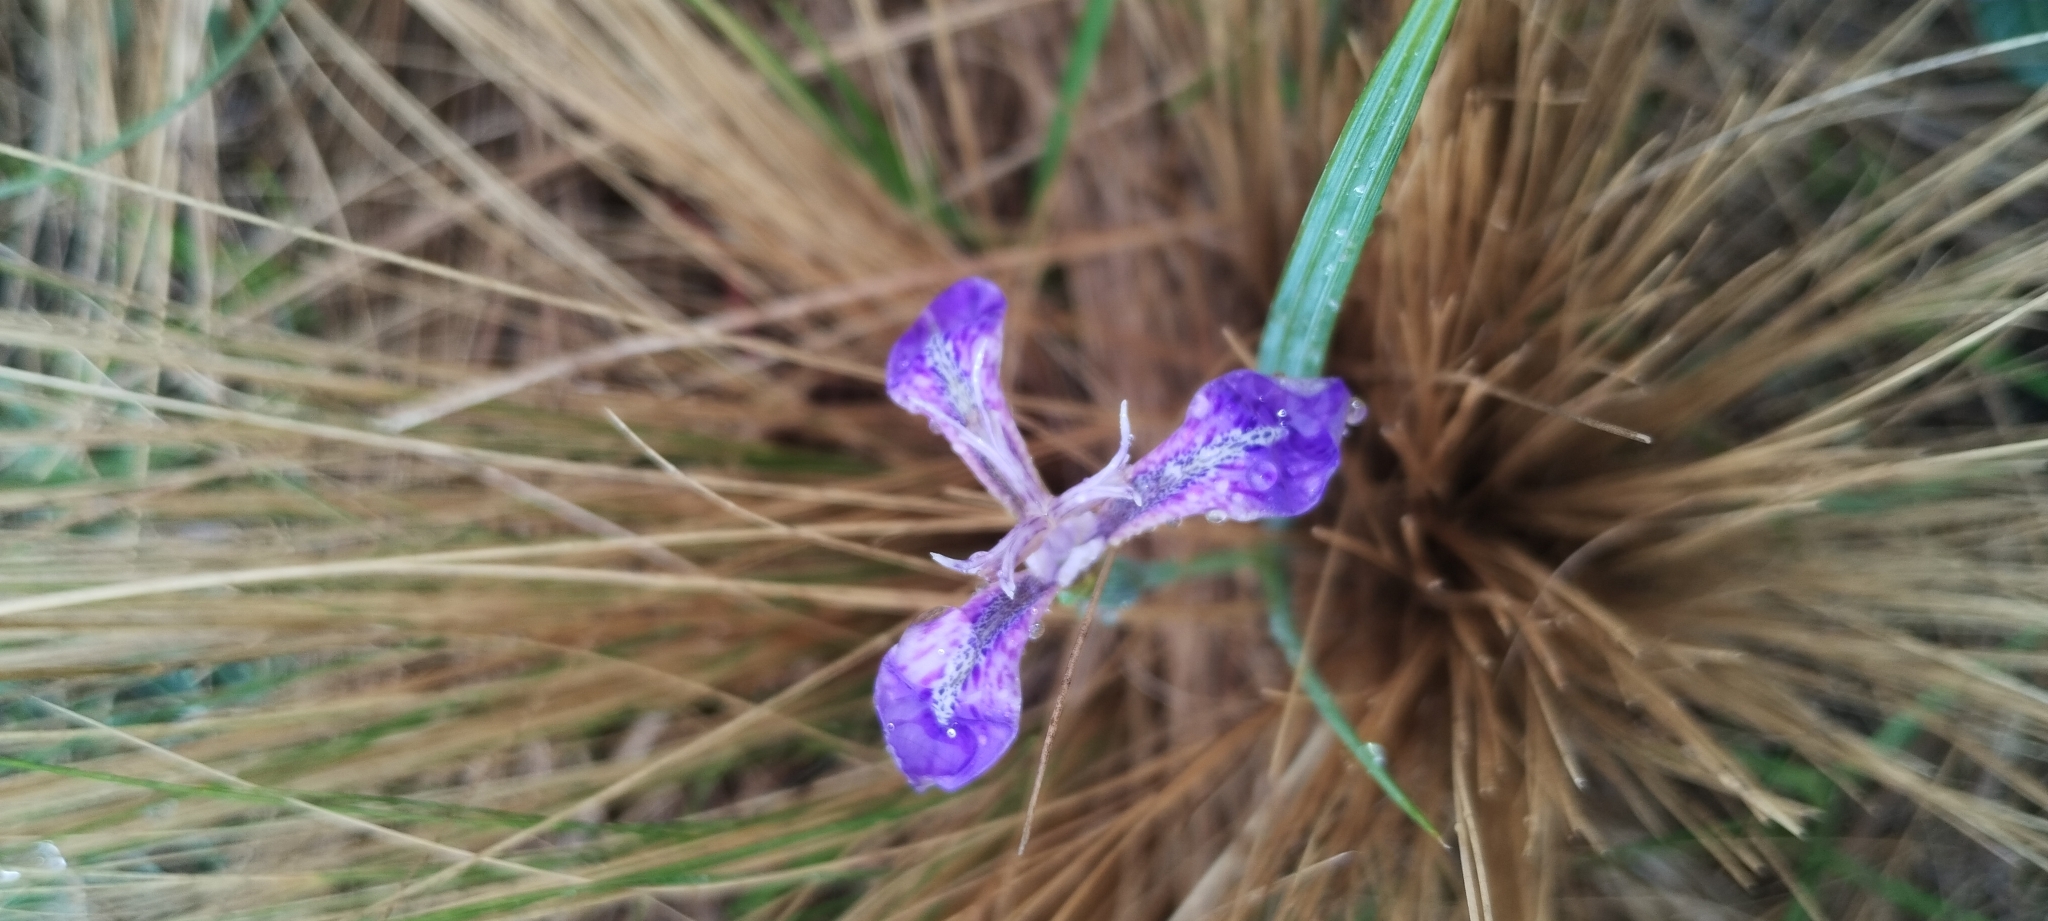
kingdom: Plantae
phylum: Tracheophyta
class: Liliopsida
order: Asparagales
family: Iridaceae
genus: Mastigostyla
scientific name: Mastigostyla spathacea
